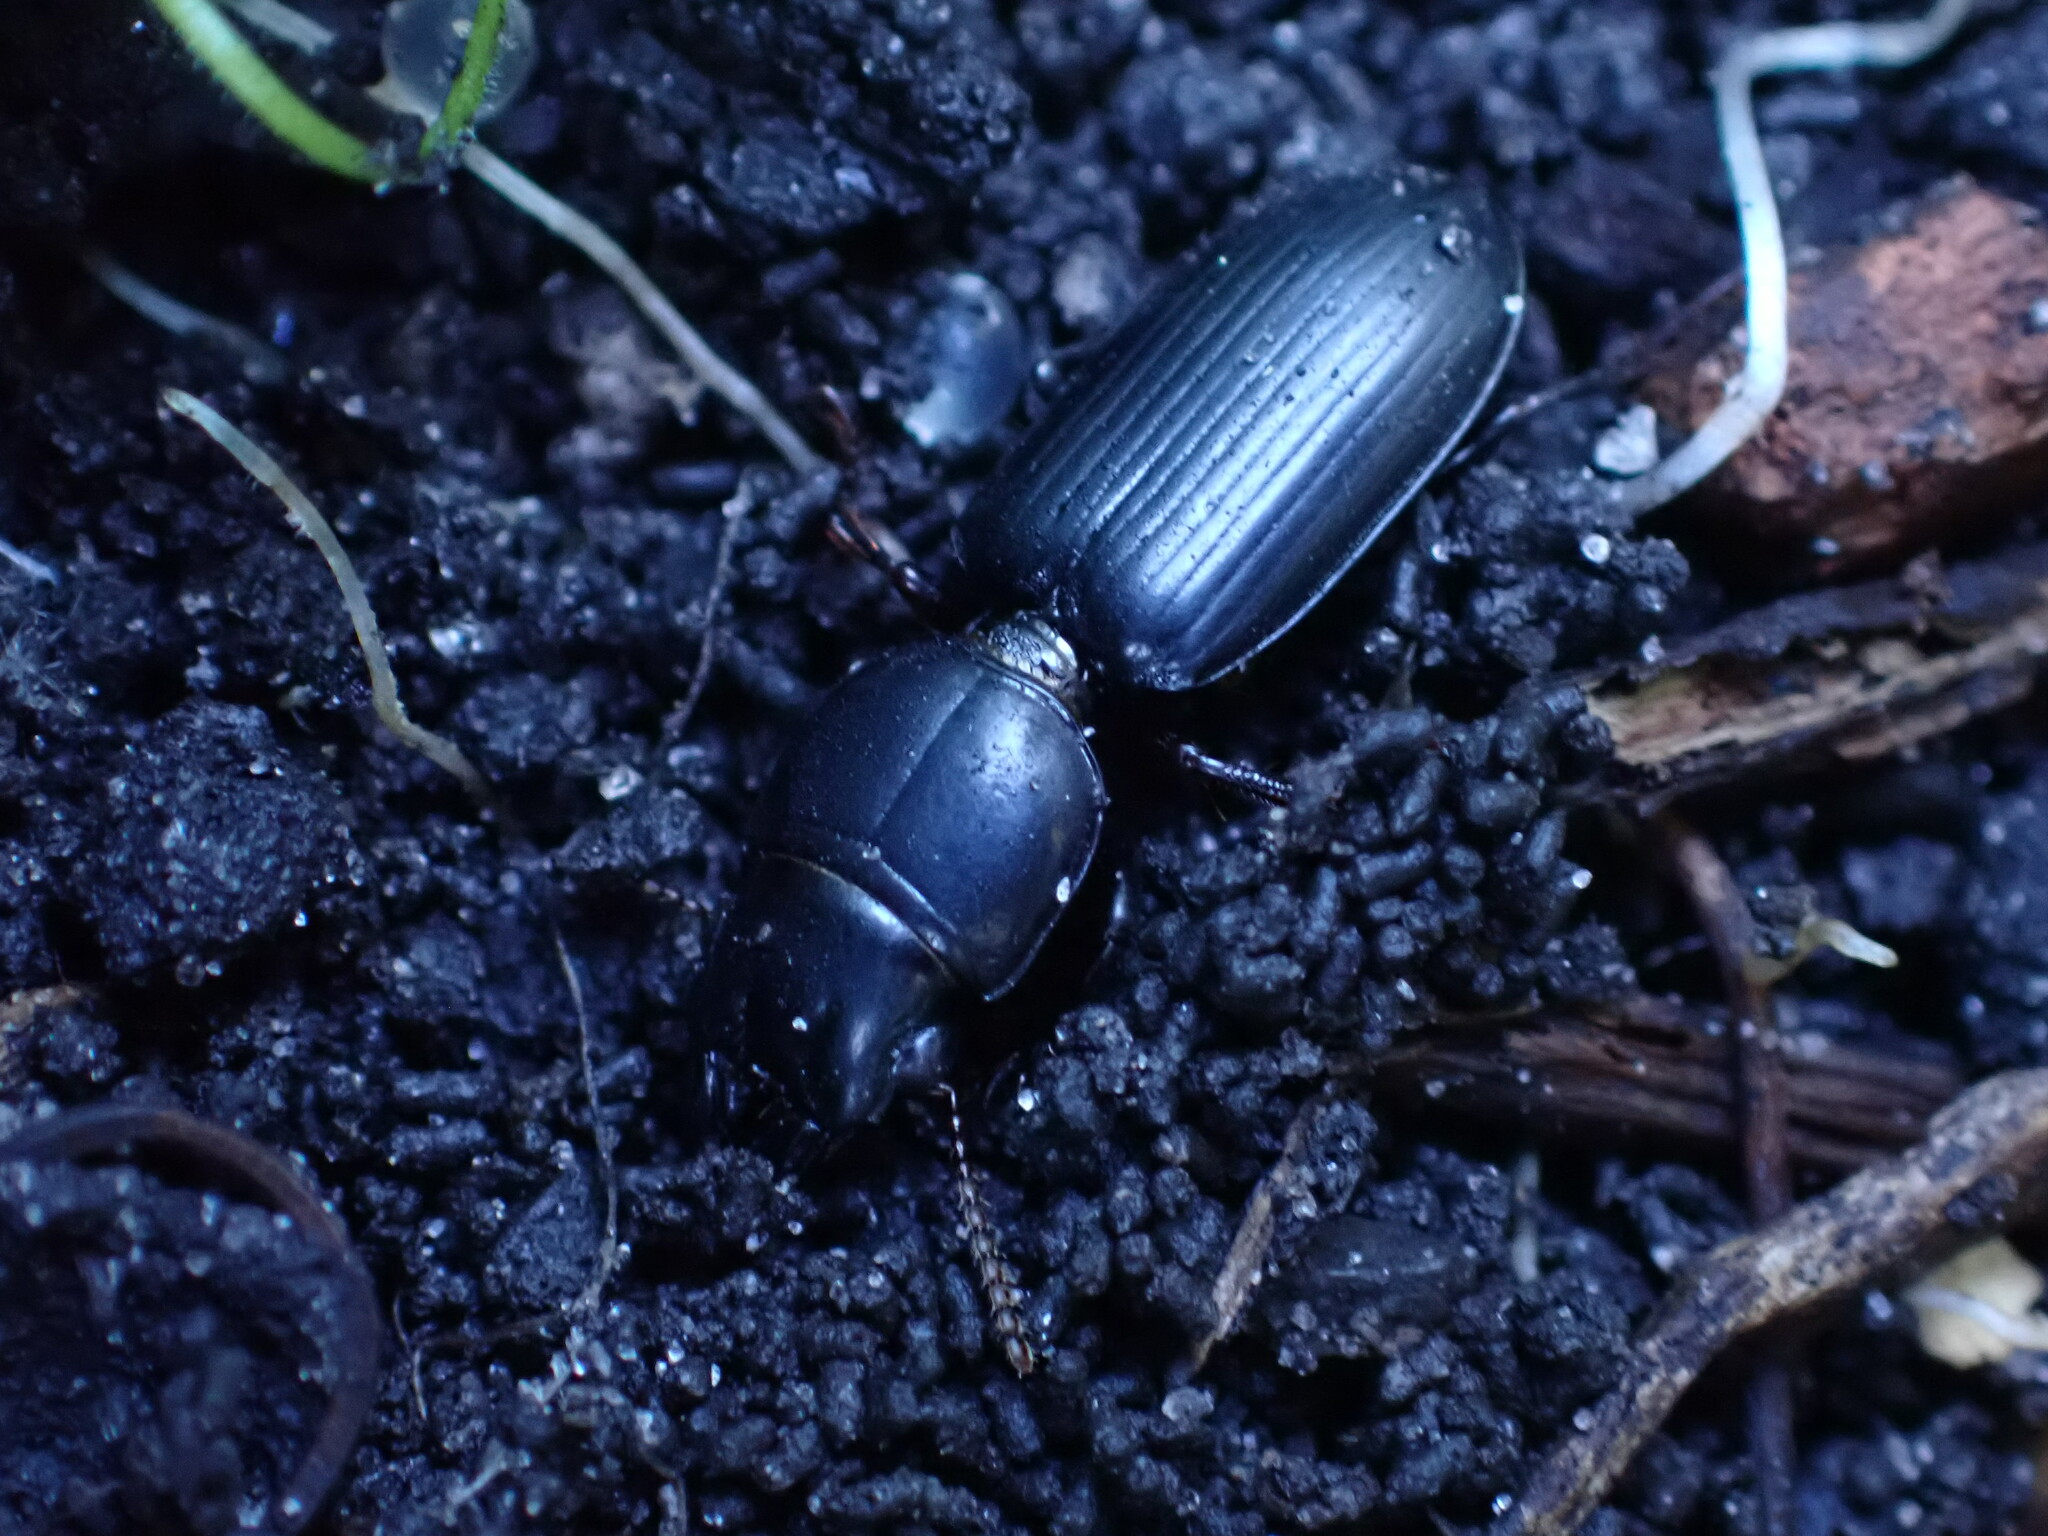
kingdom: Animalia
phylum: Arthropoda
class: Insecta
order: Coleoptera
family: Carabidae
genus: Scarites
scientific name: Scarites subterraneus
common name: Big-headed ground beetle
